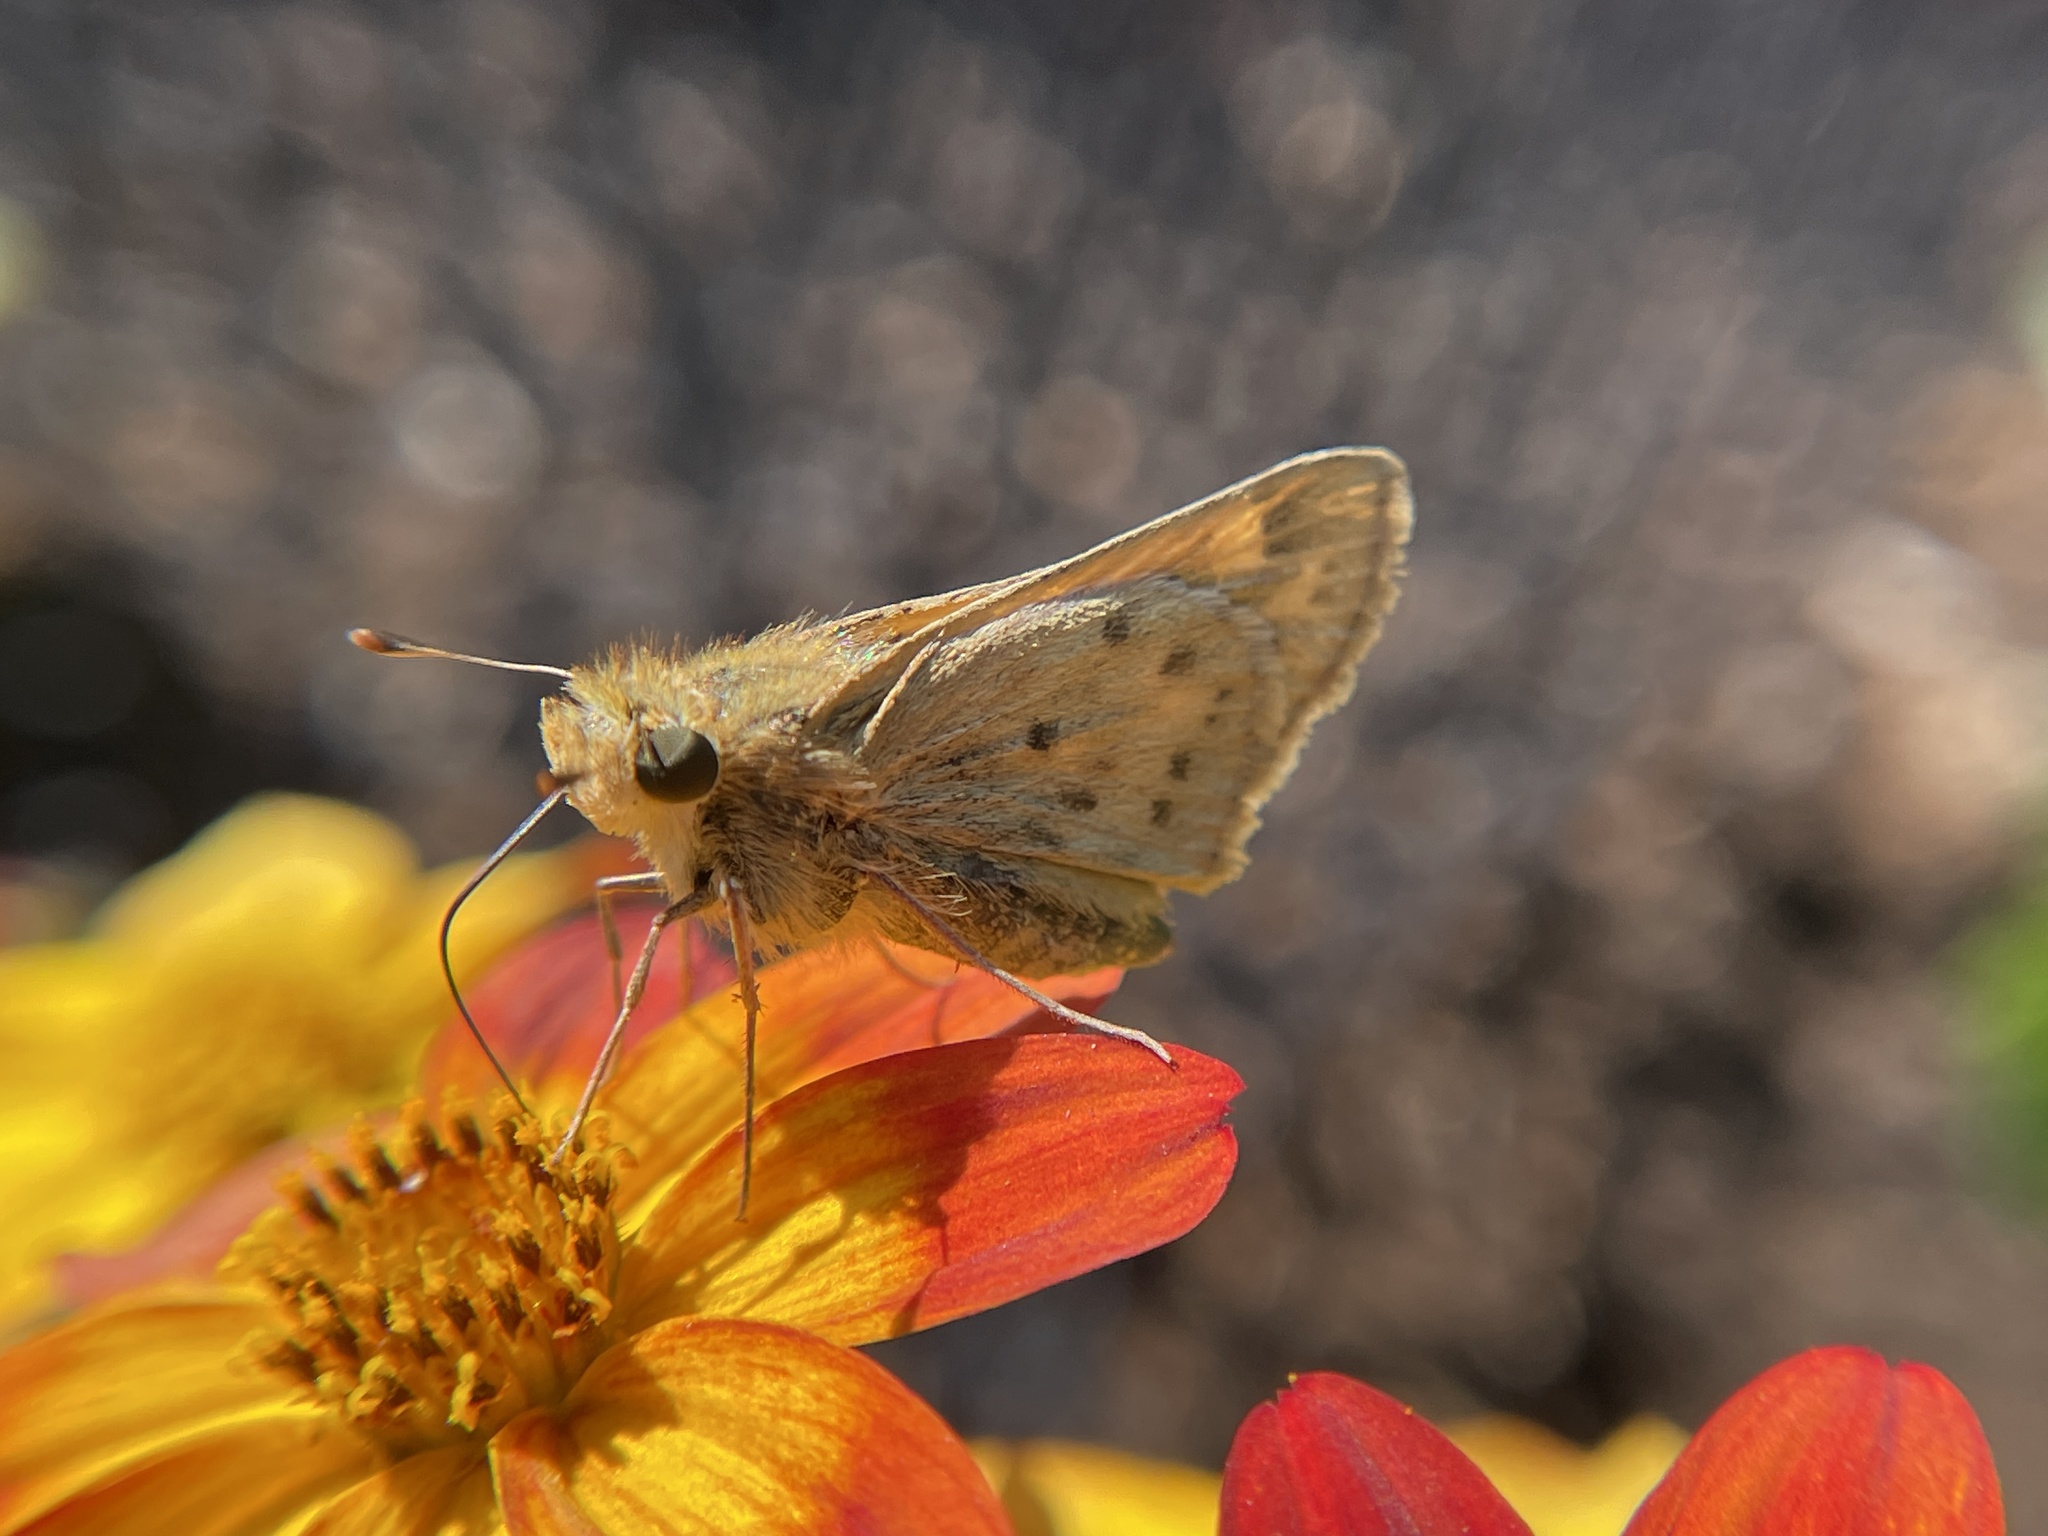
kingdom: Animalia
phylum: Arthropoda
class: Insecta
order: Lepidoptera
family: Hesperiidae
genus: Hylephila
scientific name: Hylephila phyleus
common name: Fiery skipper
